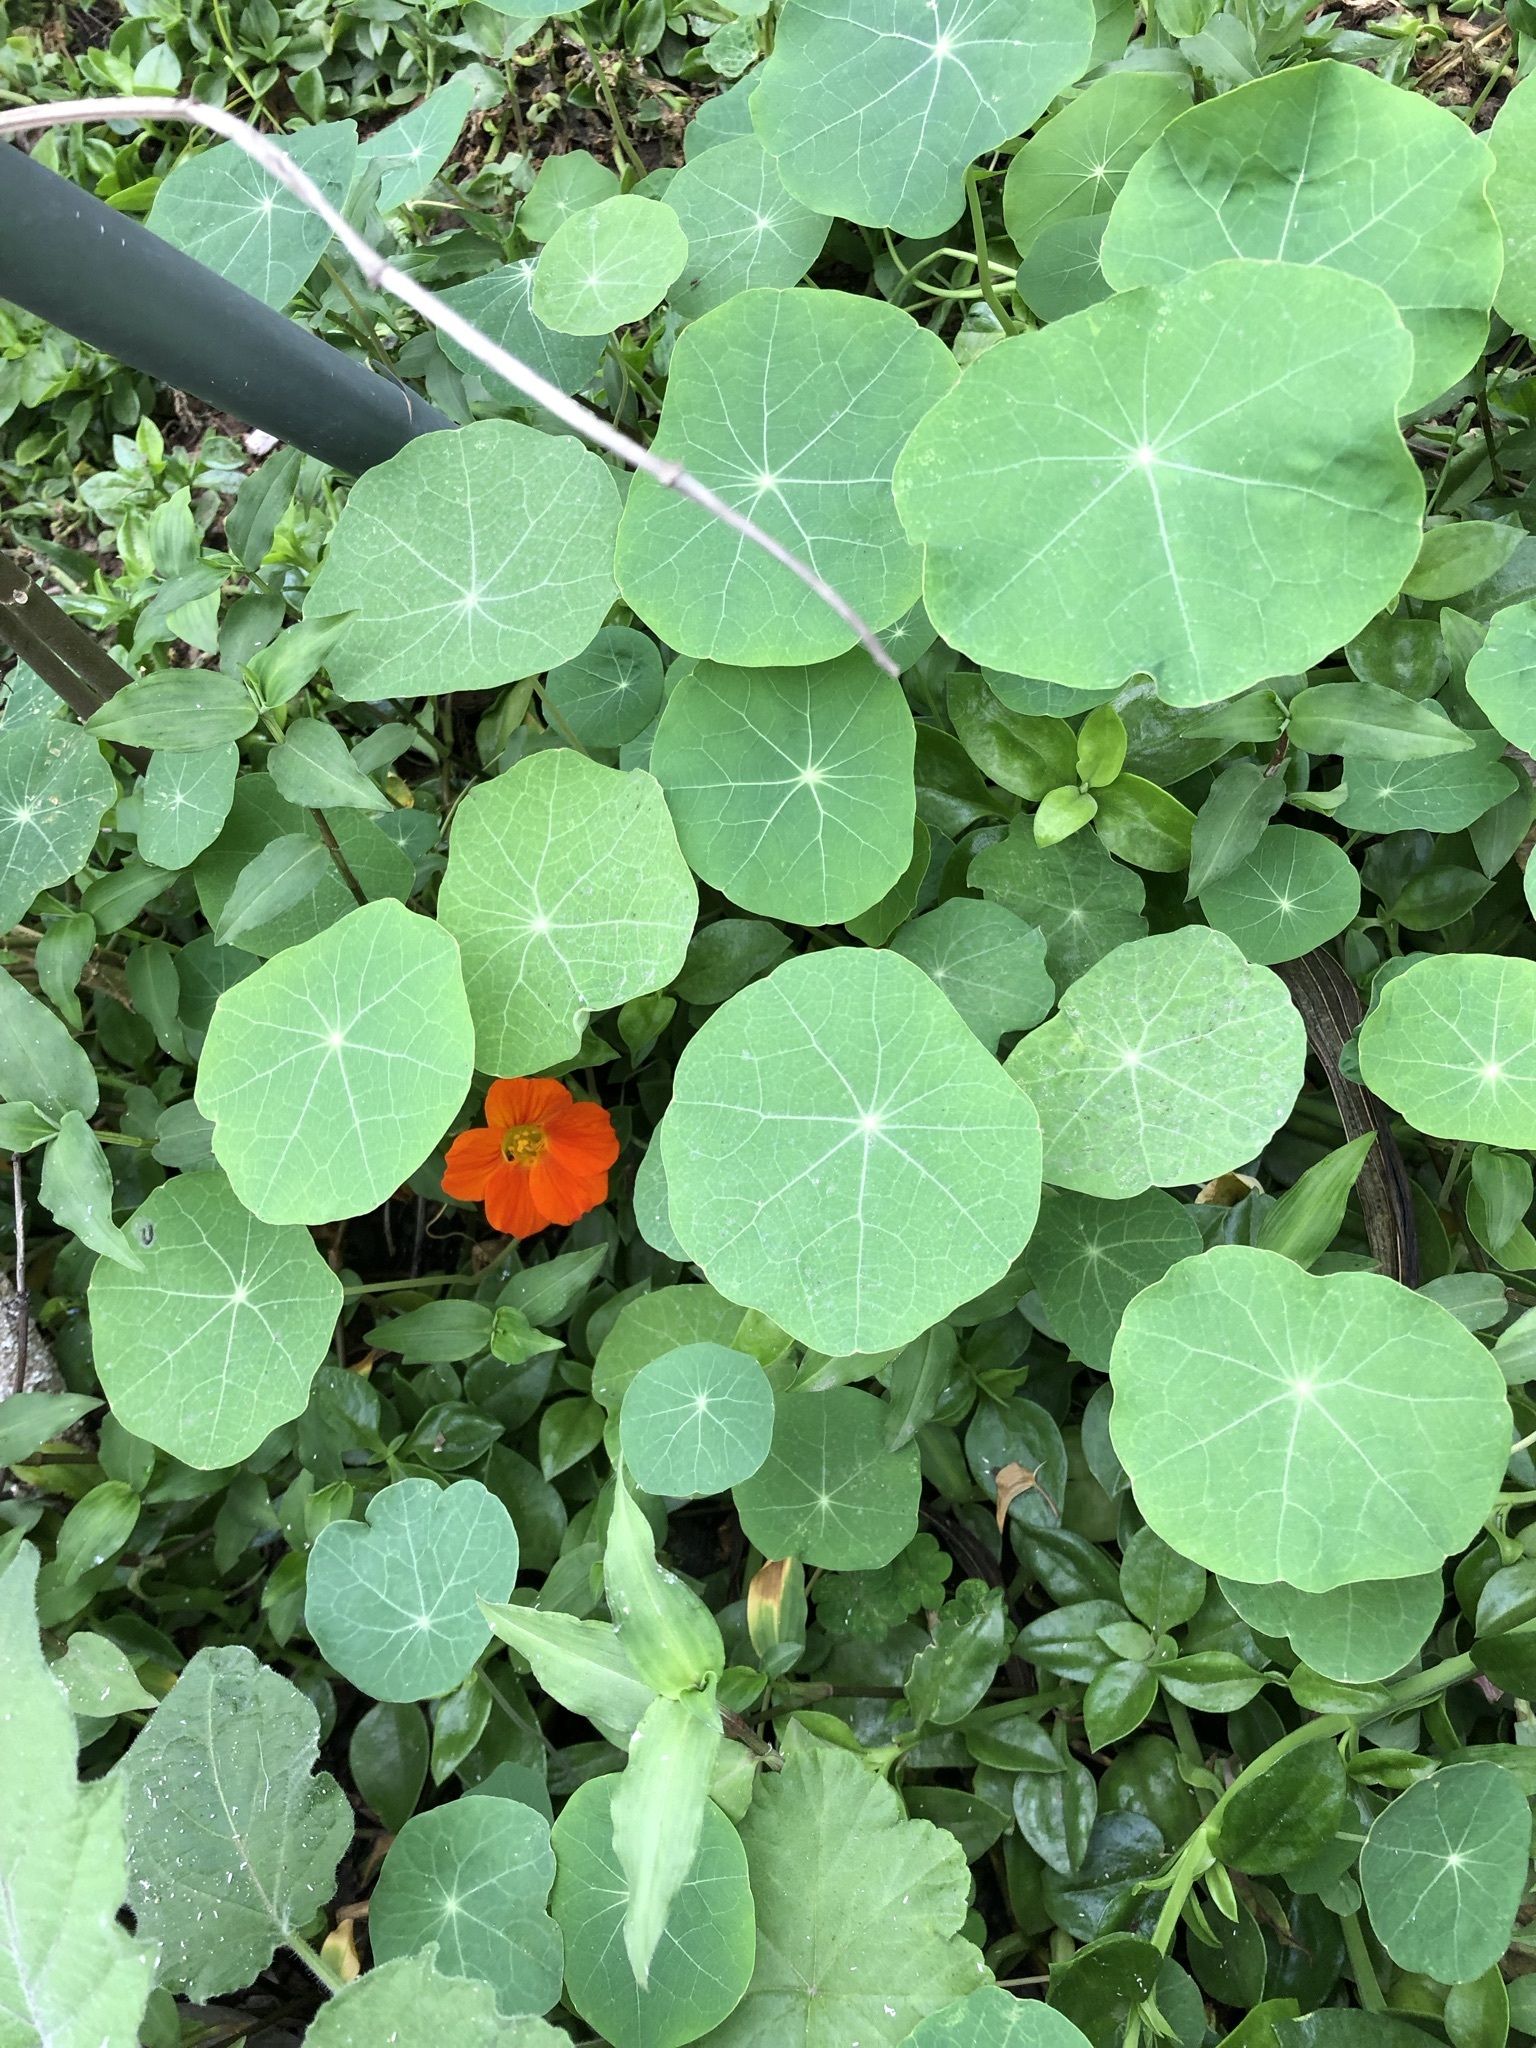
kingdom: Plantae
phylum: Tracheophyta
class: Magnoliopsida
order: Brassicales
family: Tropaeolaceae
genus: Tropaeolum
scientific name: Tropaeolum majus
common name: Nasturtium
